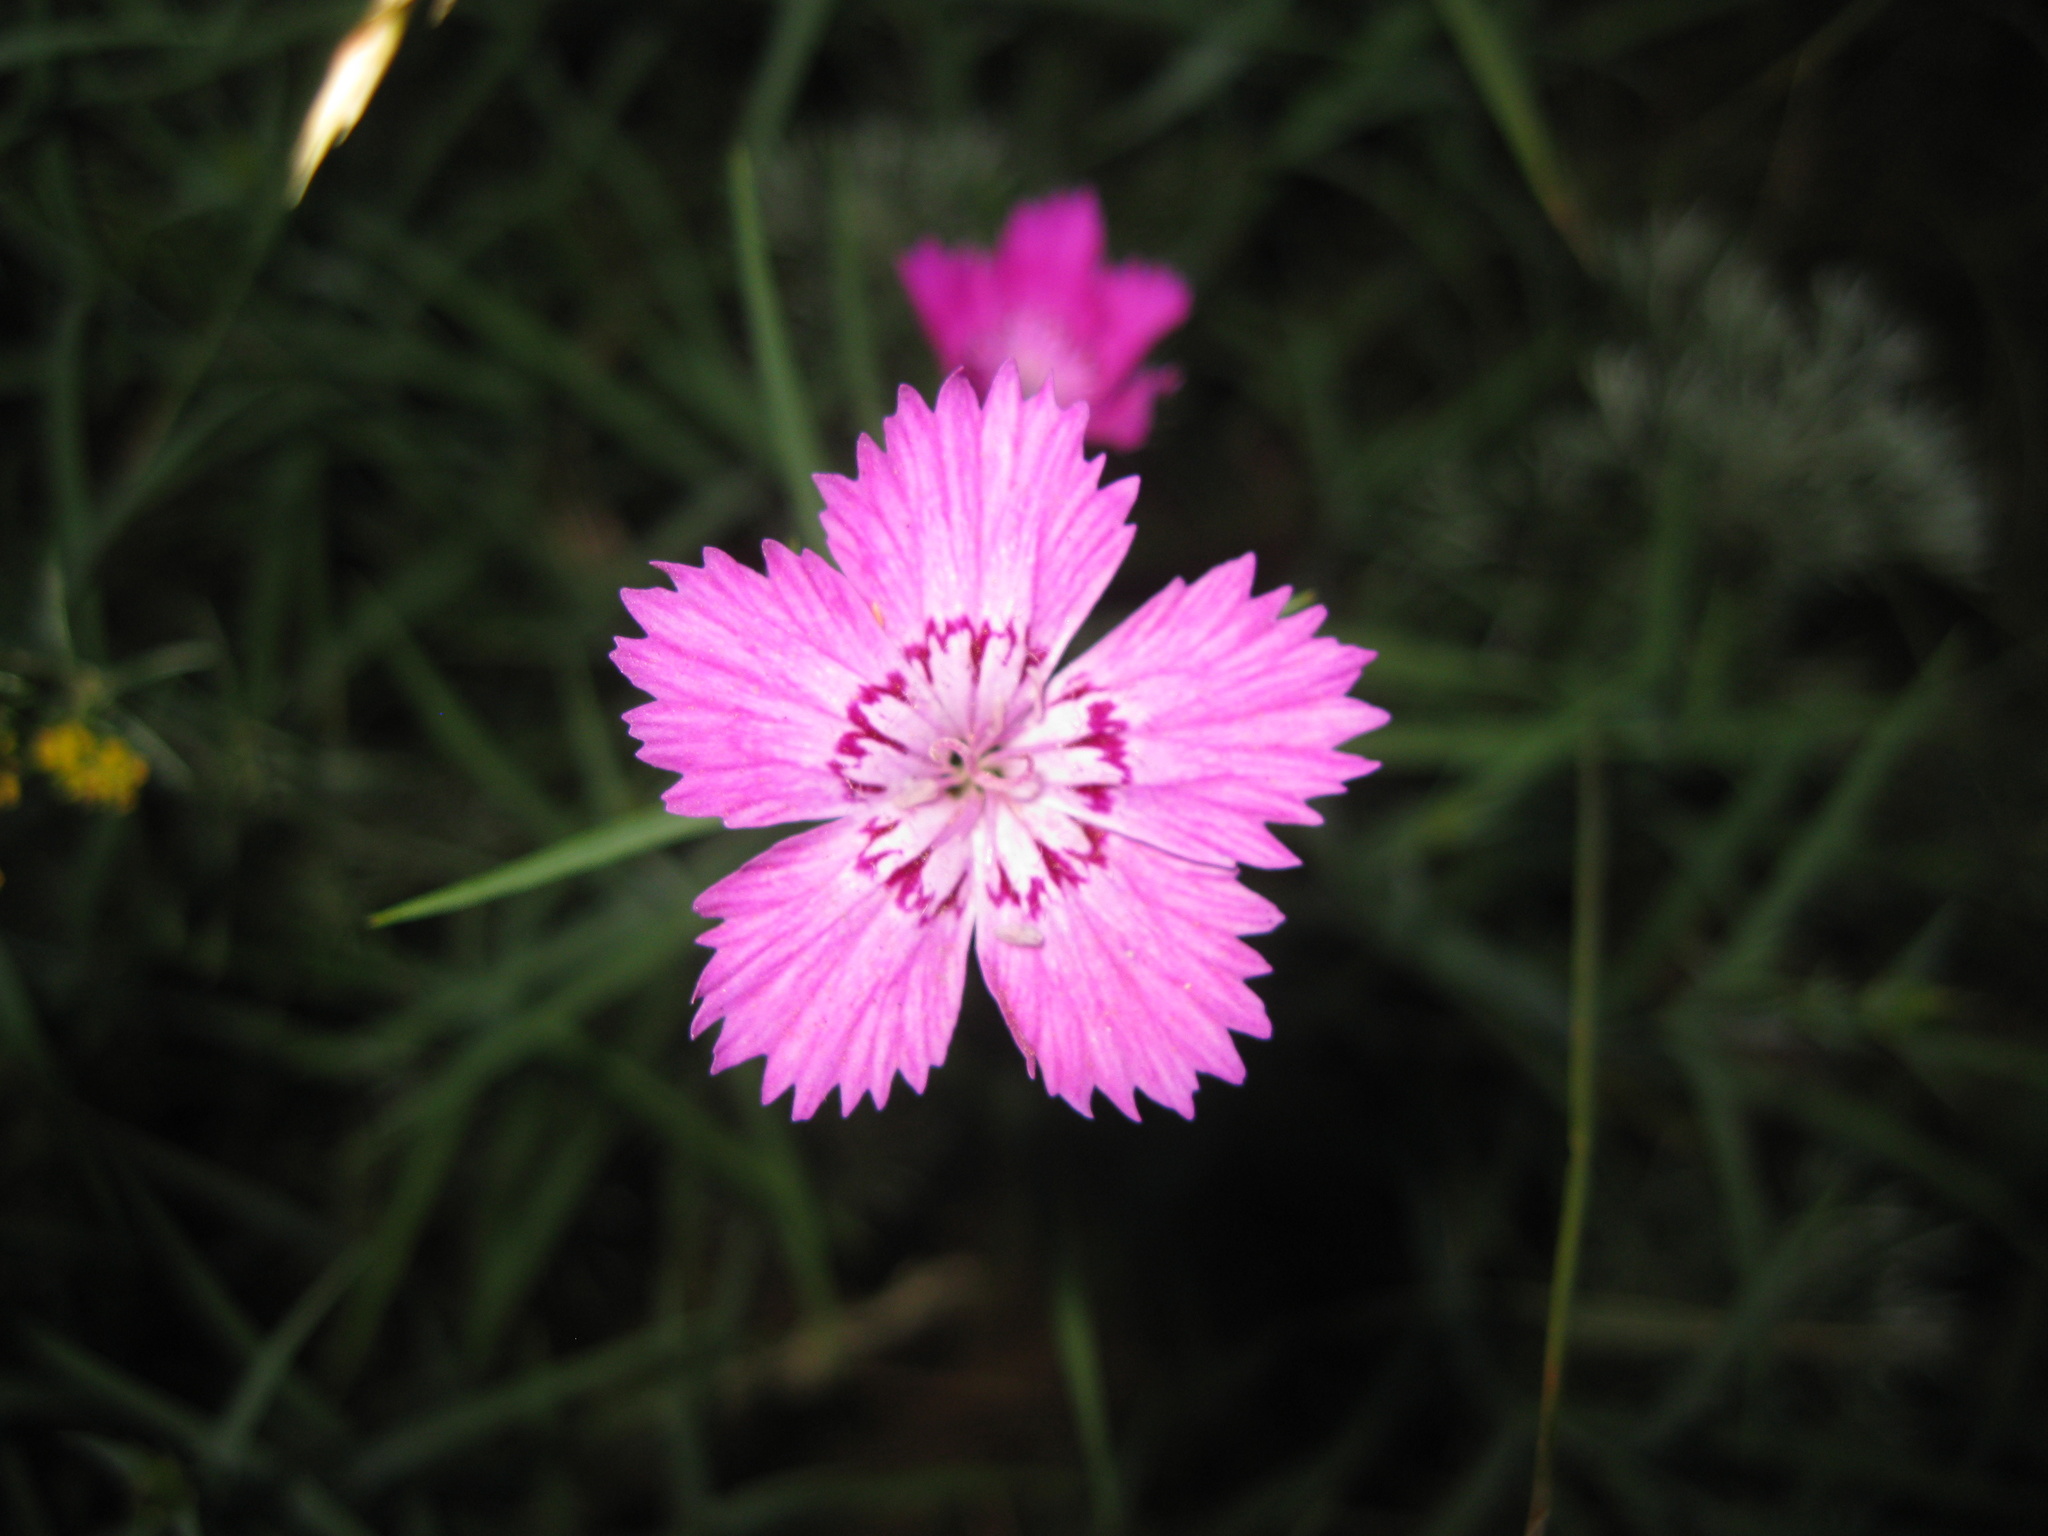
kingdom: Plantae
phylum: Tracheophyta
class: Magnoliopsida
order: Caryophyllales
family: Caryophyllaceae
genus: Dianthus
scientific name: Dianthus chinensis
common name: Rainbow pink
